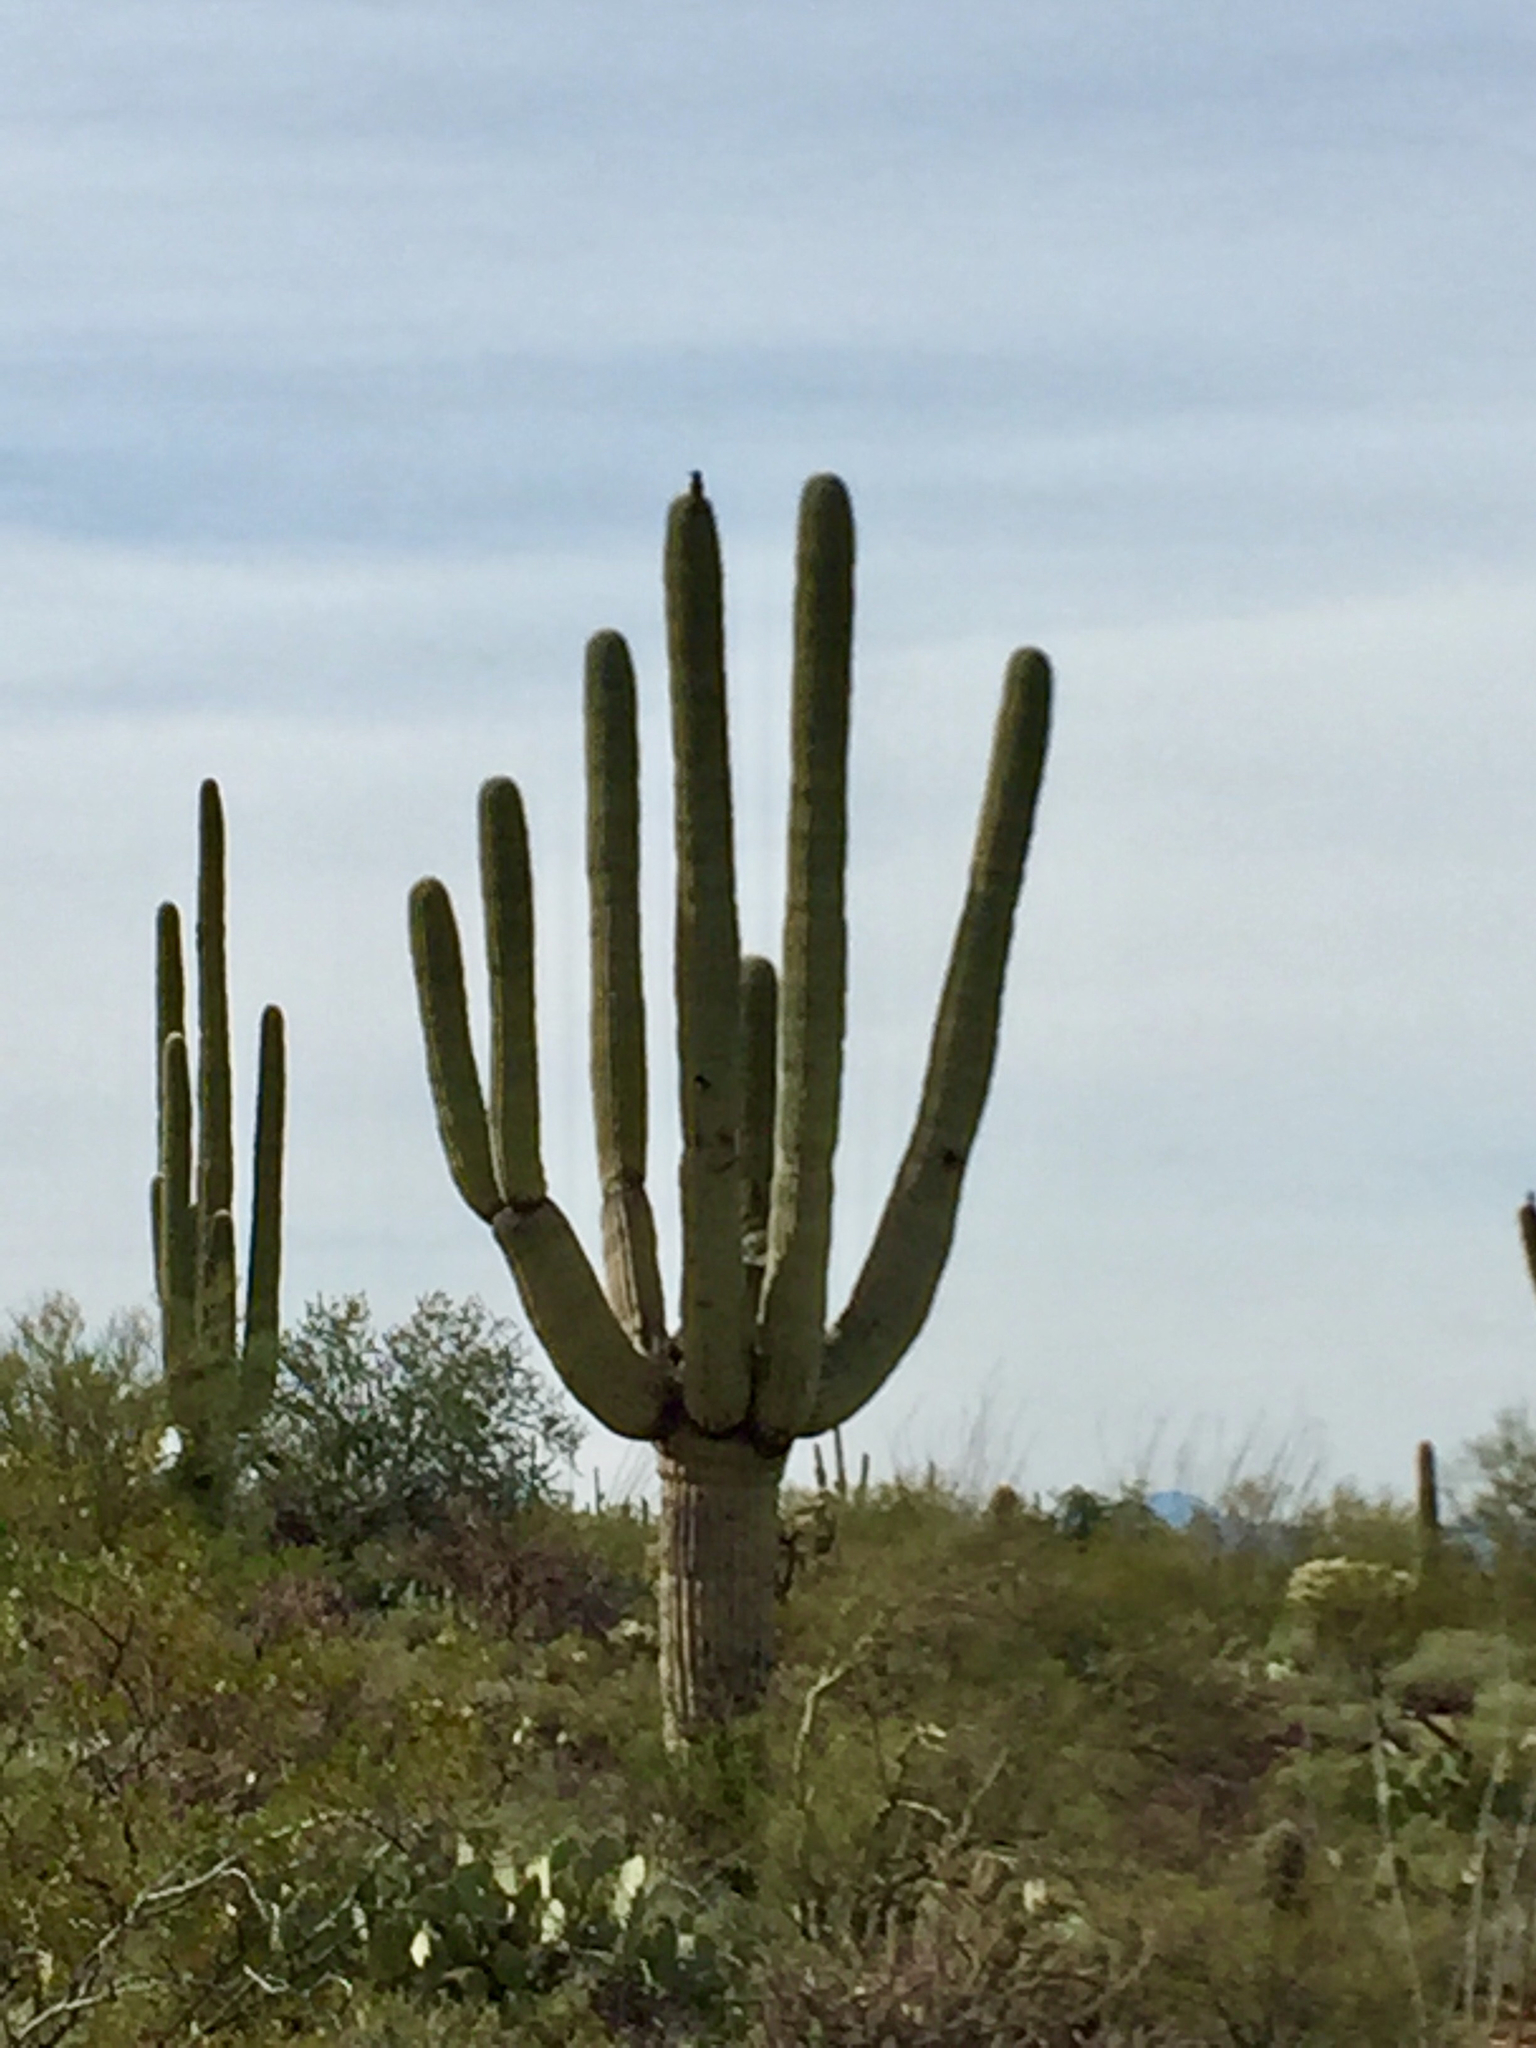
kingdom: Plantae
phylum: Tracheophyta
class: Magnoliopsida
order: Caryophyllales
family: Cactaceae
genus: Carnegiea
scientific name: Carnegiea gigantea
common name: Saguaro
